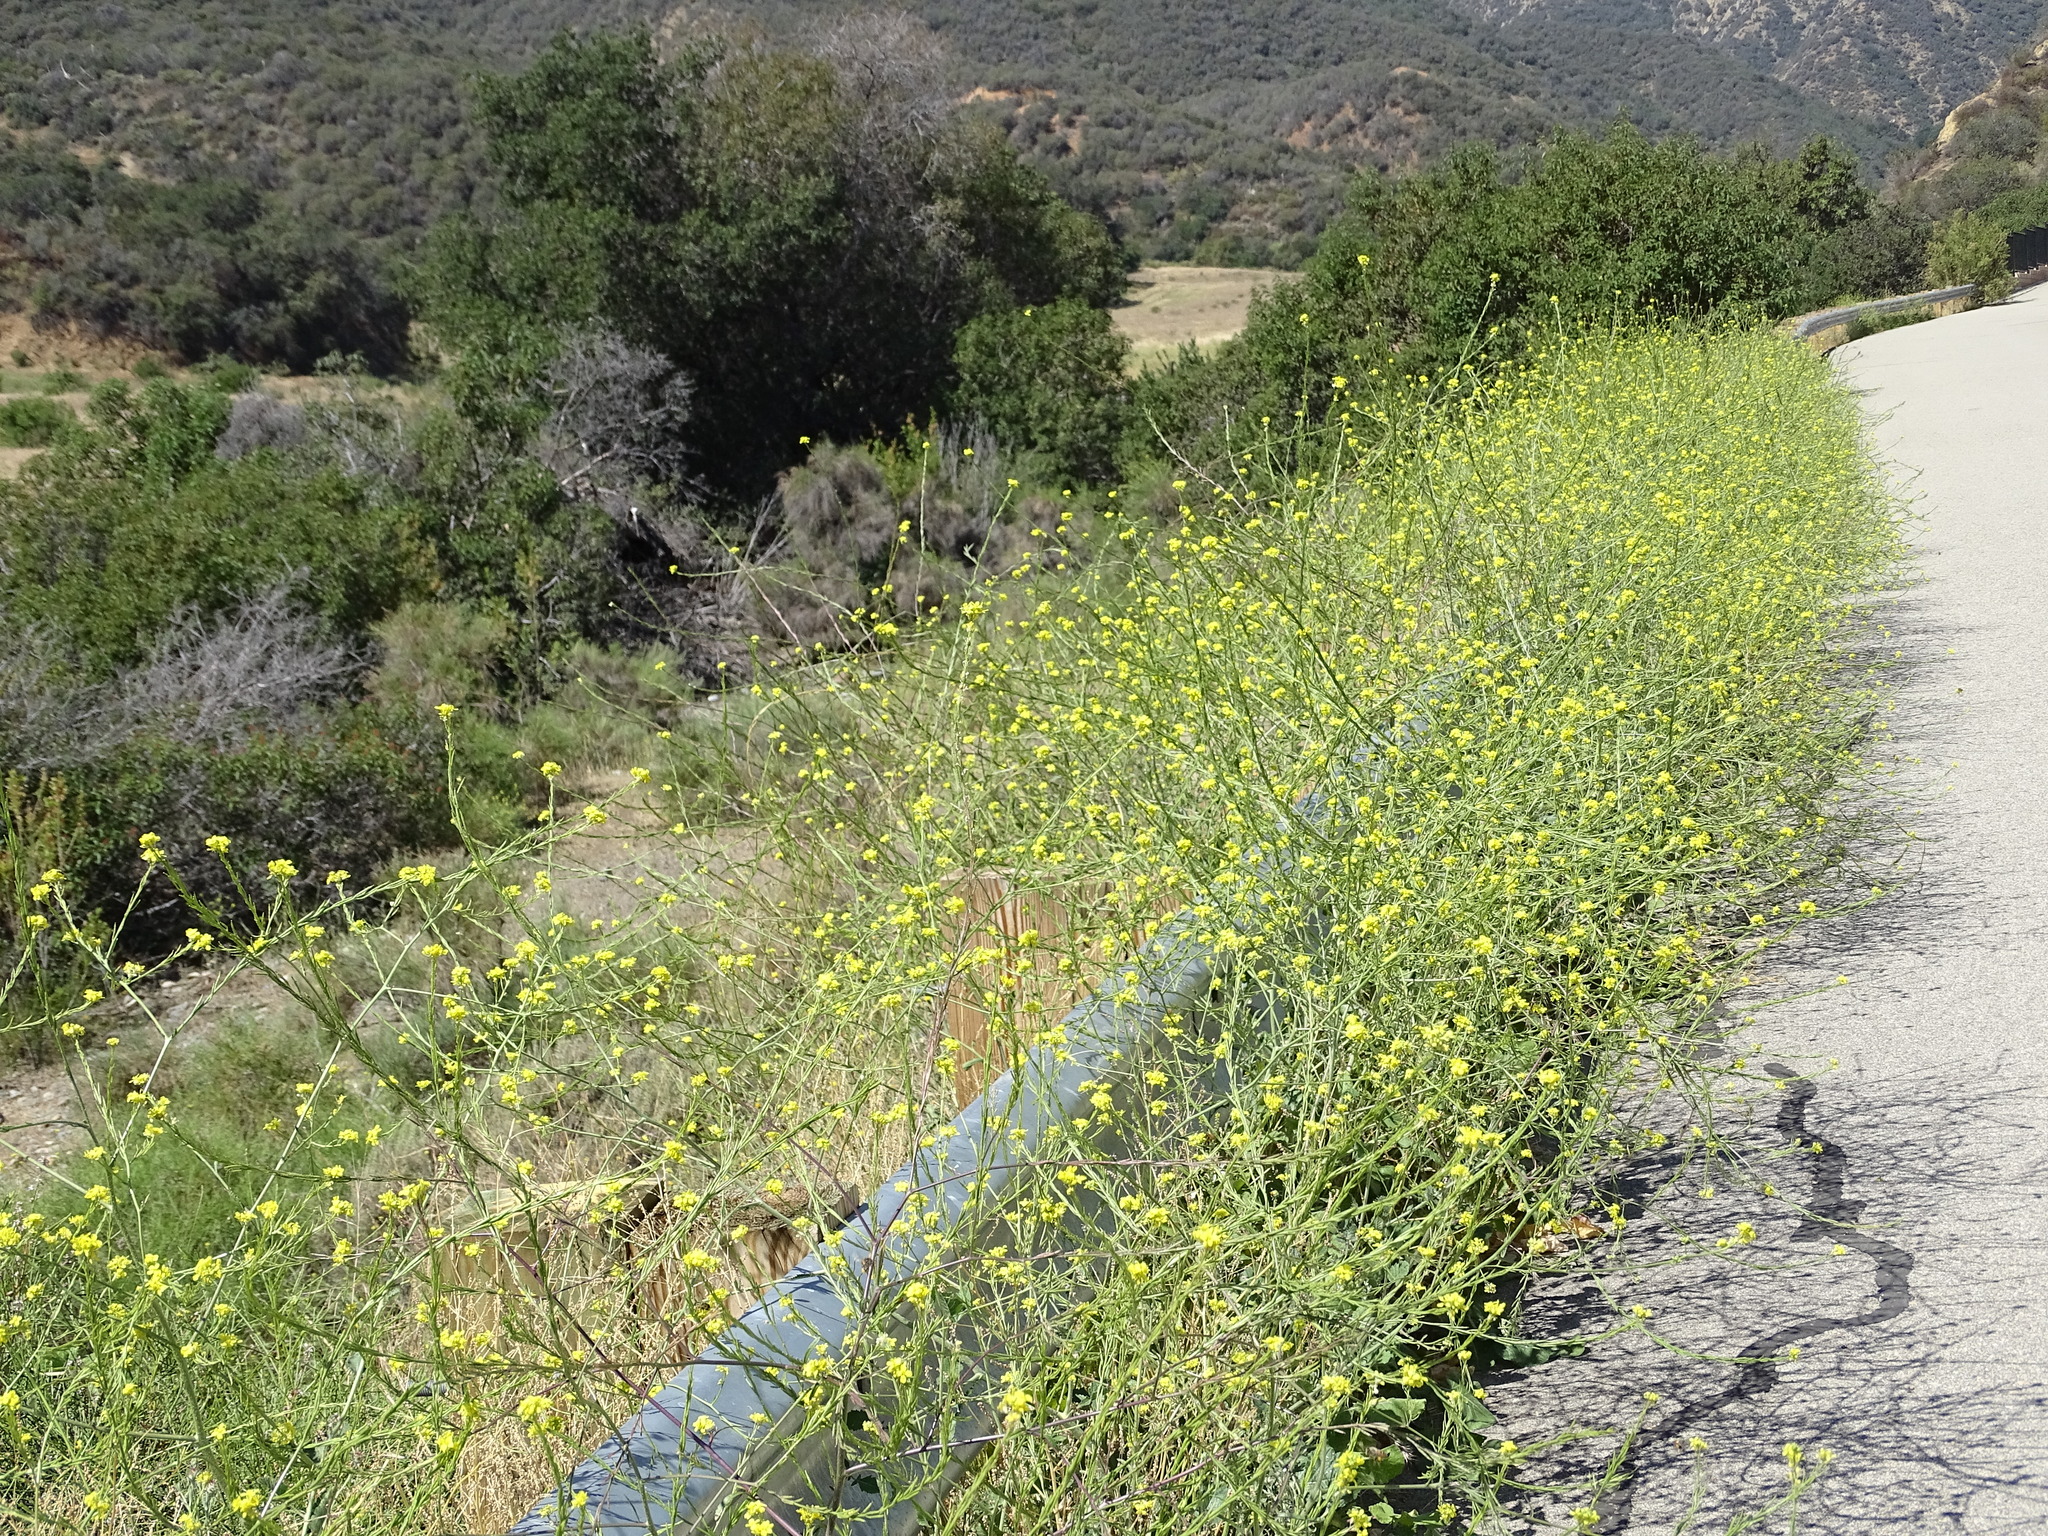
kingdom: Plantae
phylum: Tracheophyta
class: Magnoliopsida
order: Brassicales
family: Brassicaceae
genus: Hirschfeldia
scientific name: Hirschfeldia incana
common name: Hoary mustard
